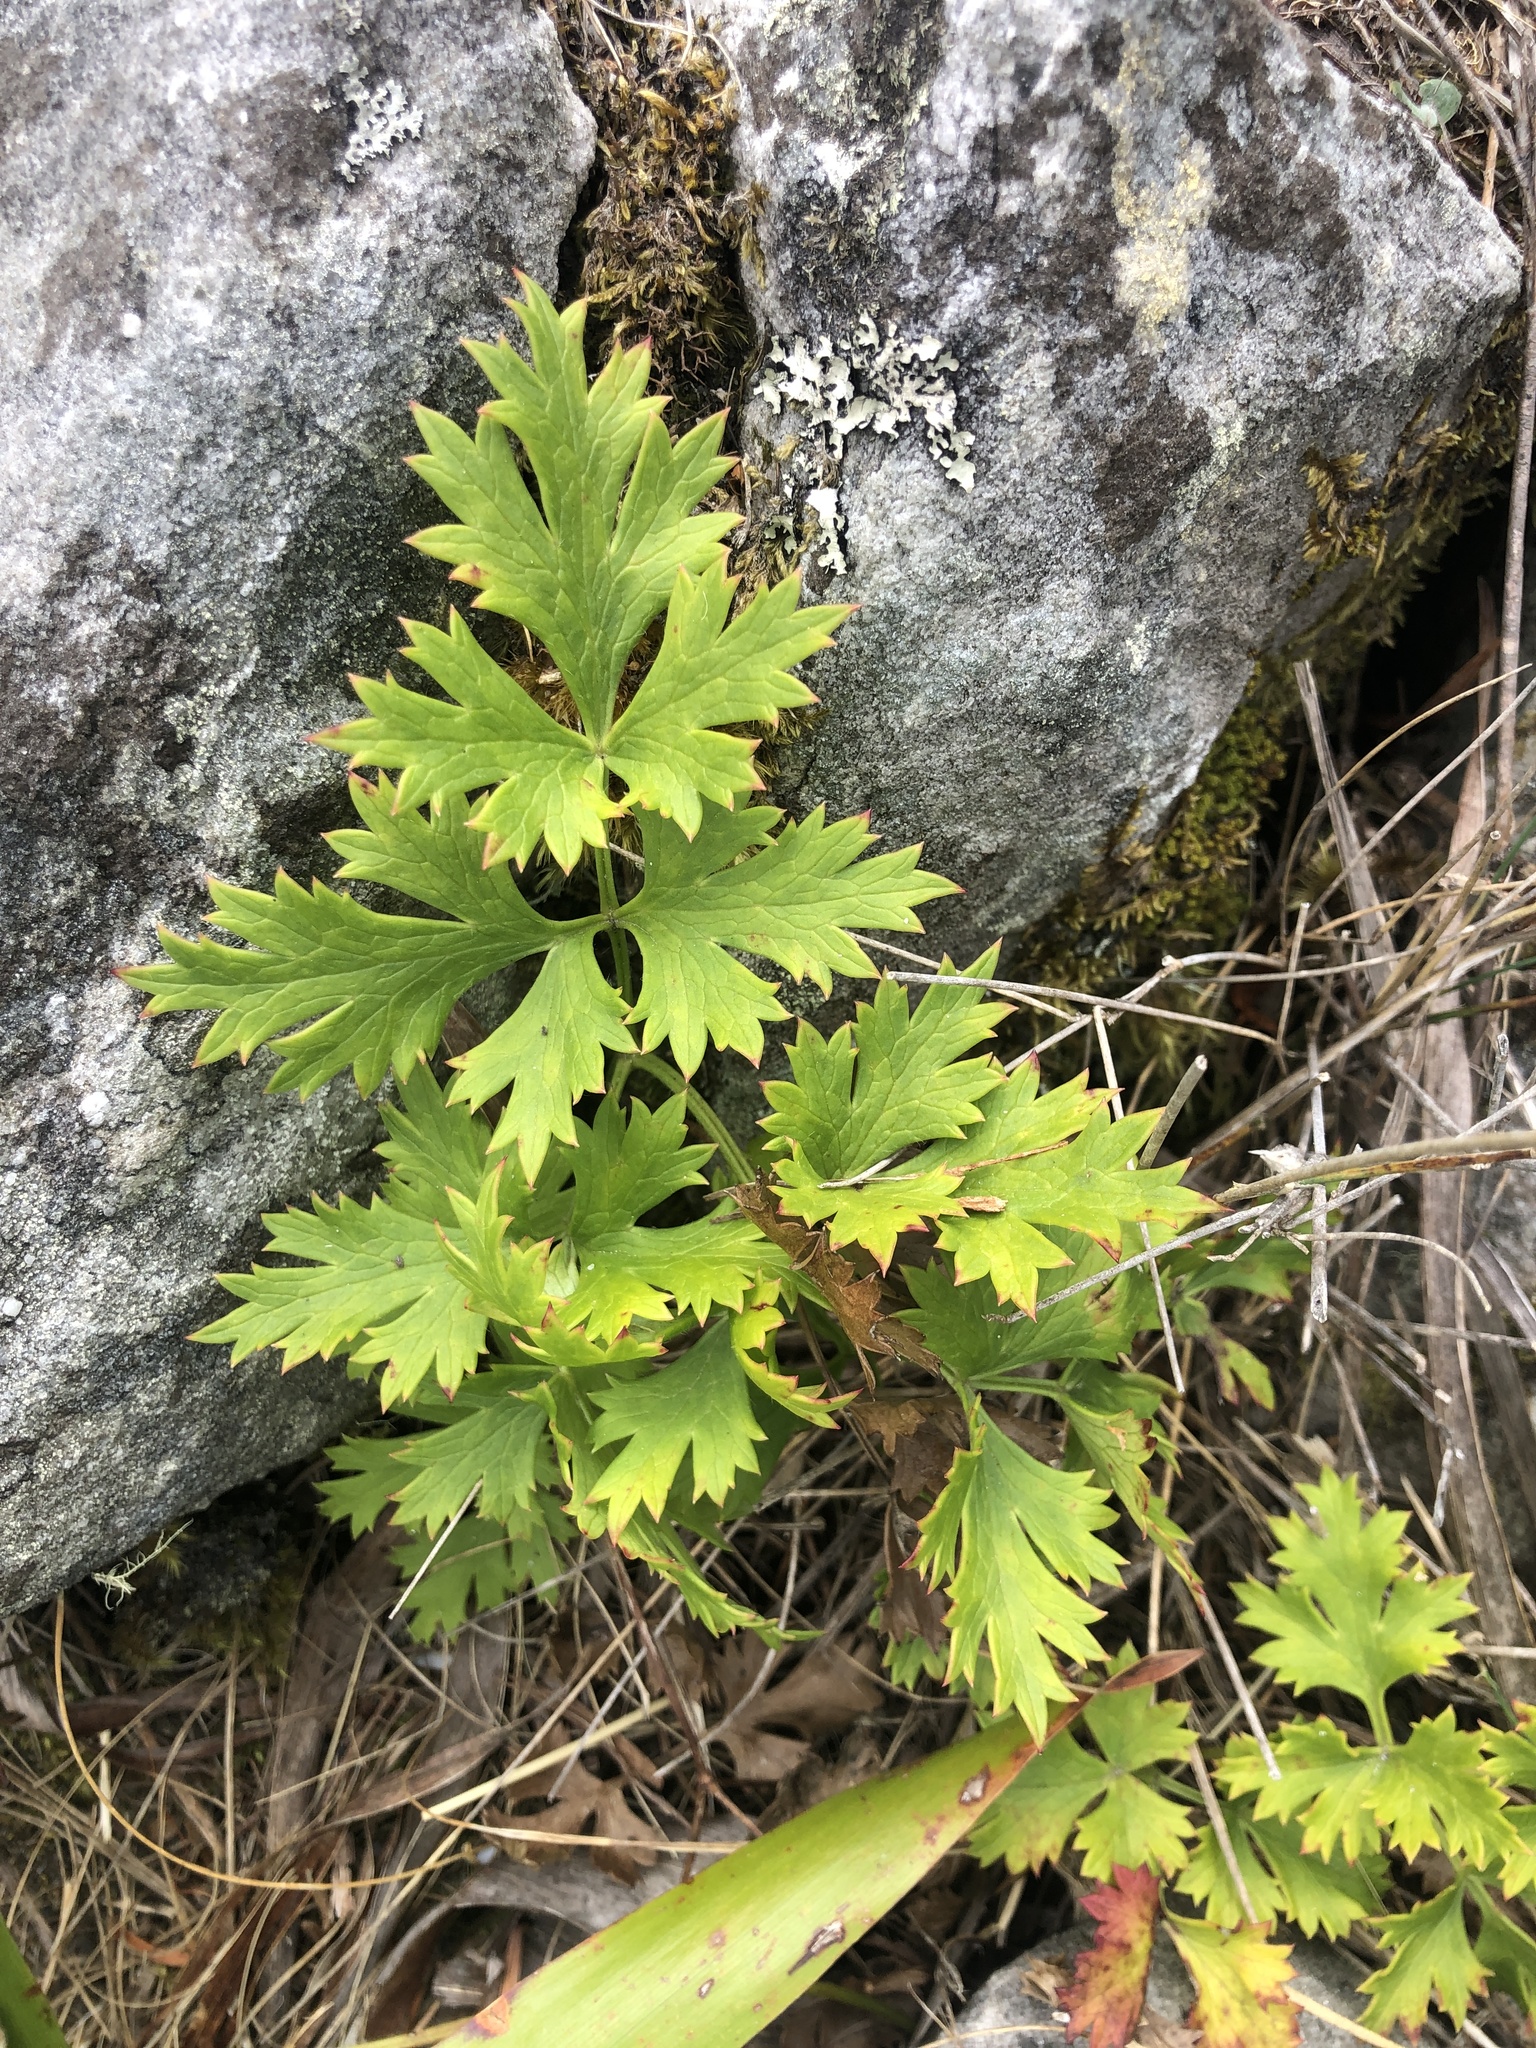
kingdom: Plantae
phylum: Tracheophyta
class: Magnoliopsida
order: Ranunculales
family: Ranunculaceae
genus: Knowltonia
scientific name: Knowltonia tenuifolia
